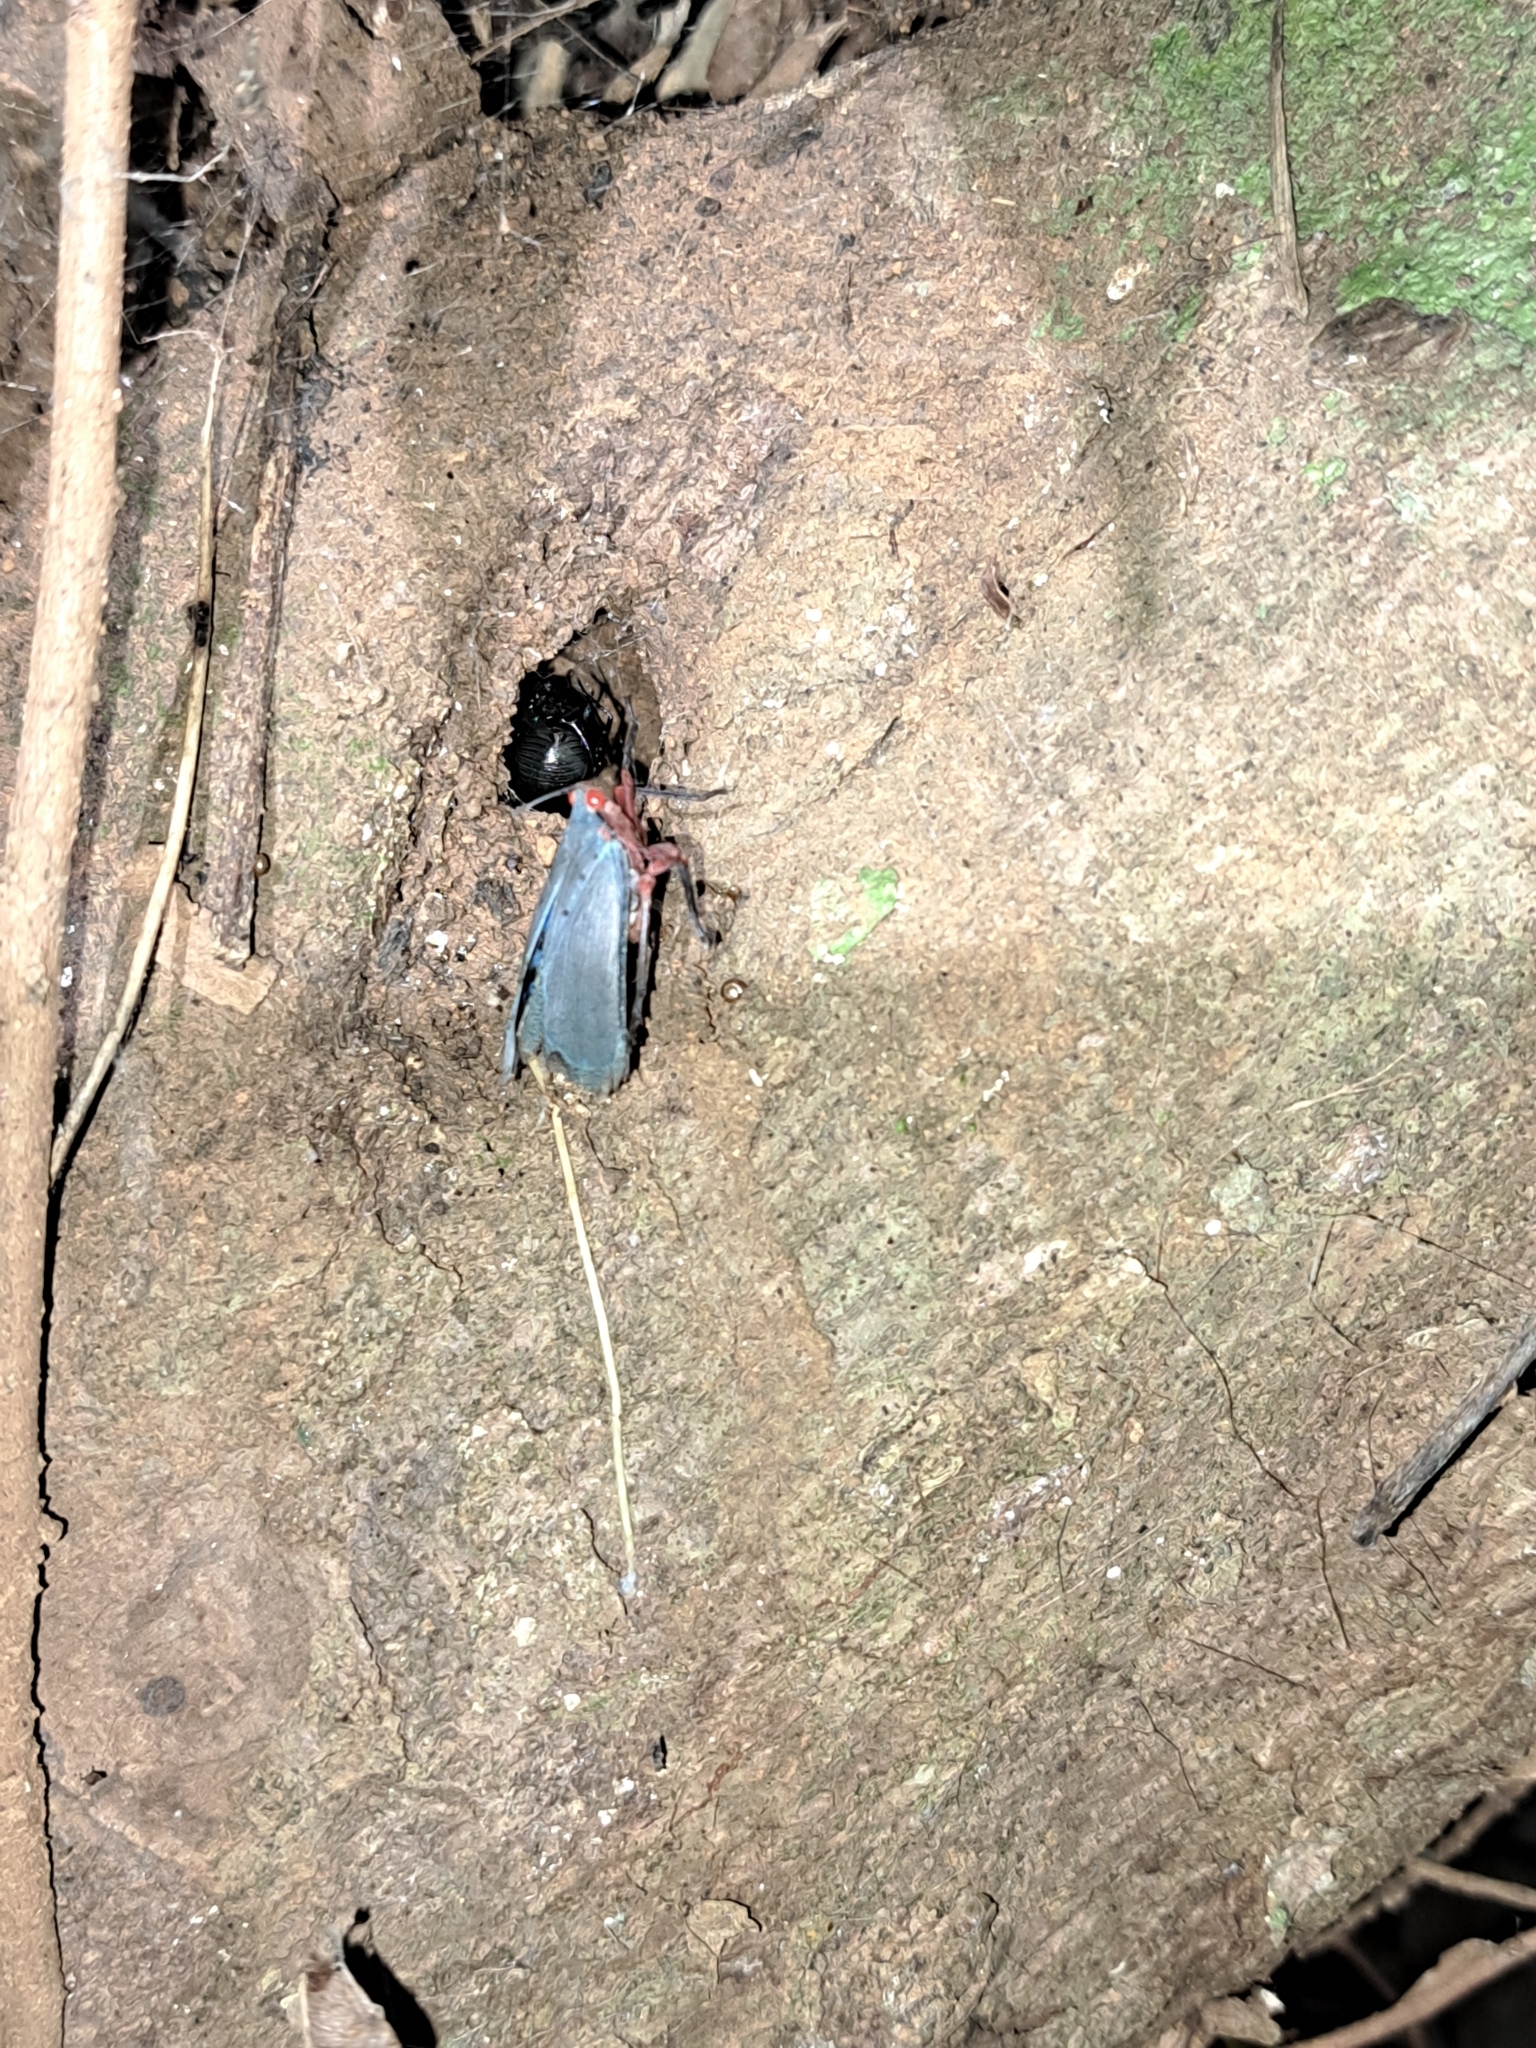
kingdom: Animalia
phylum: Arthropoda
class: Insecta
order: Hemiptera
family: Fulgoridae
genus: Kalidasa
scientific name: Kalidasa nigromaculata
